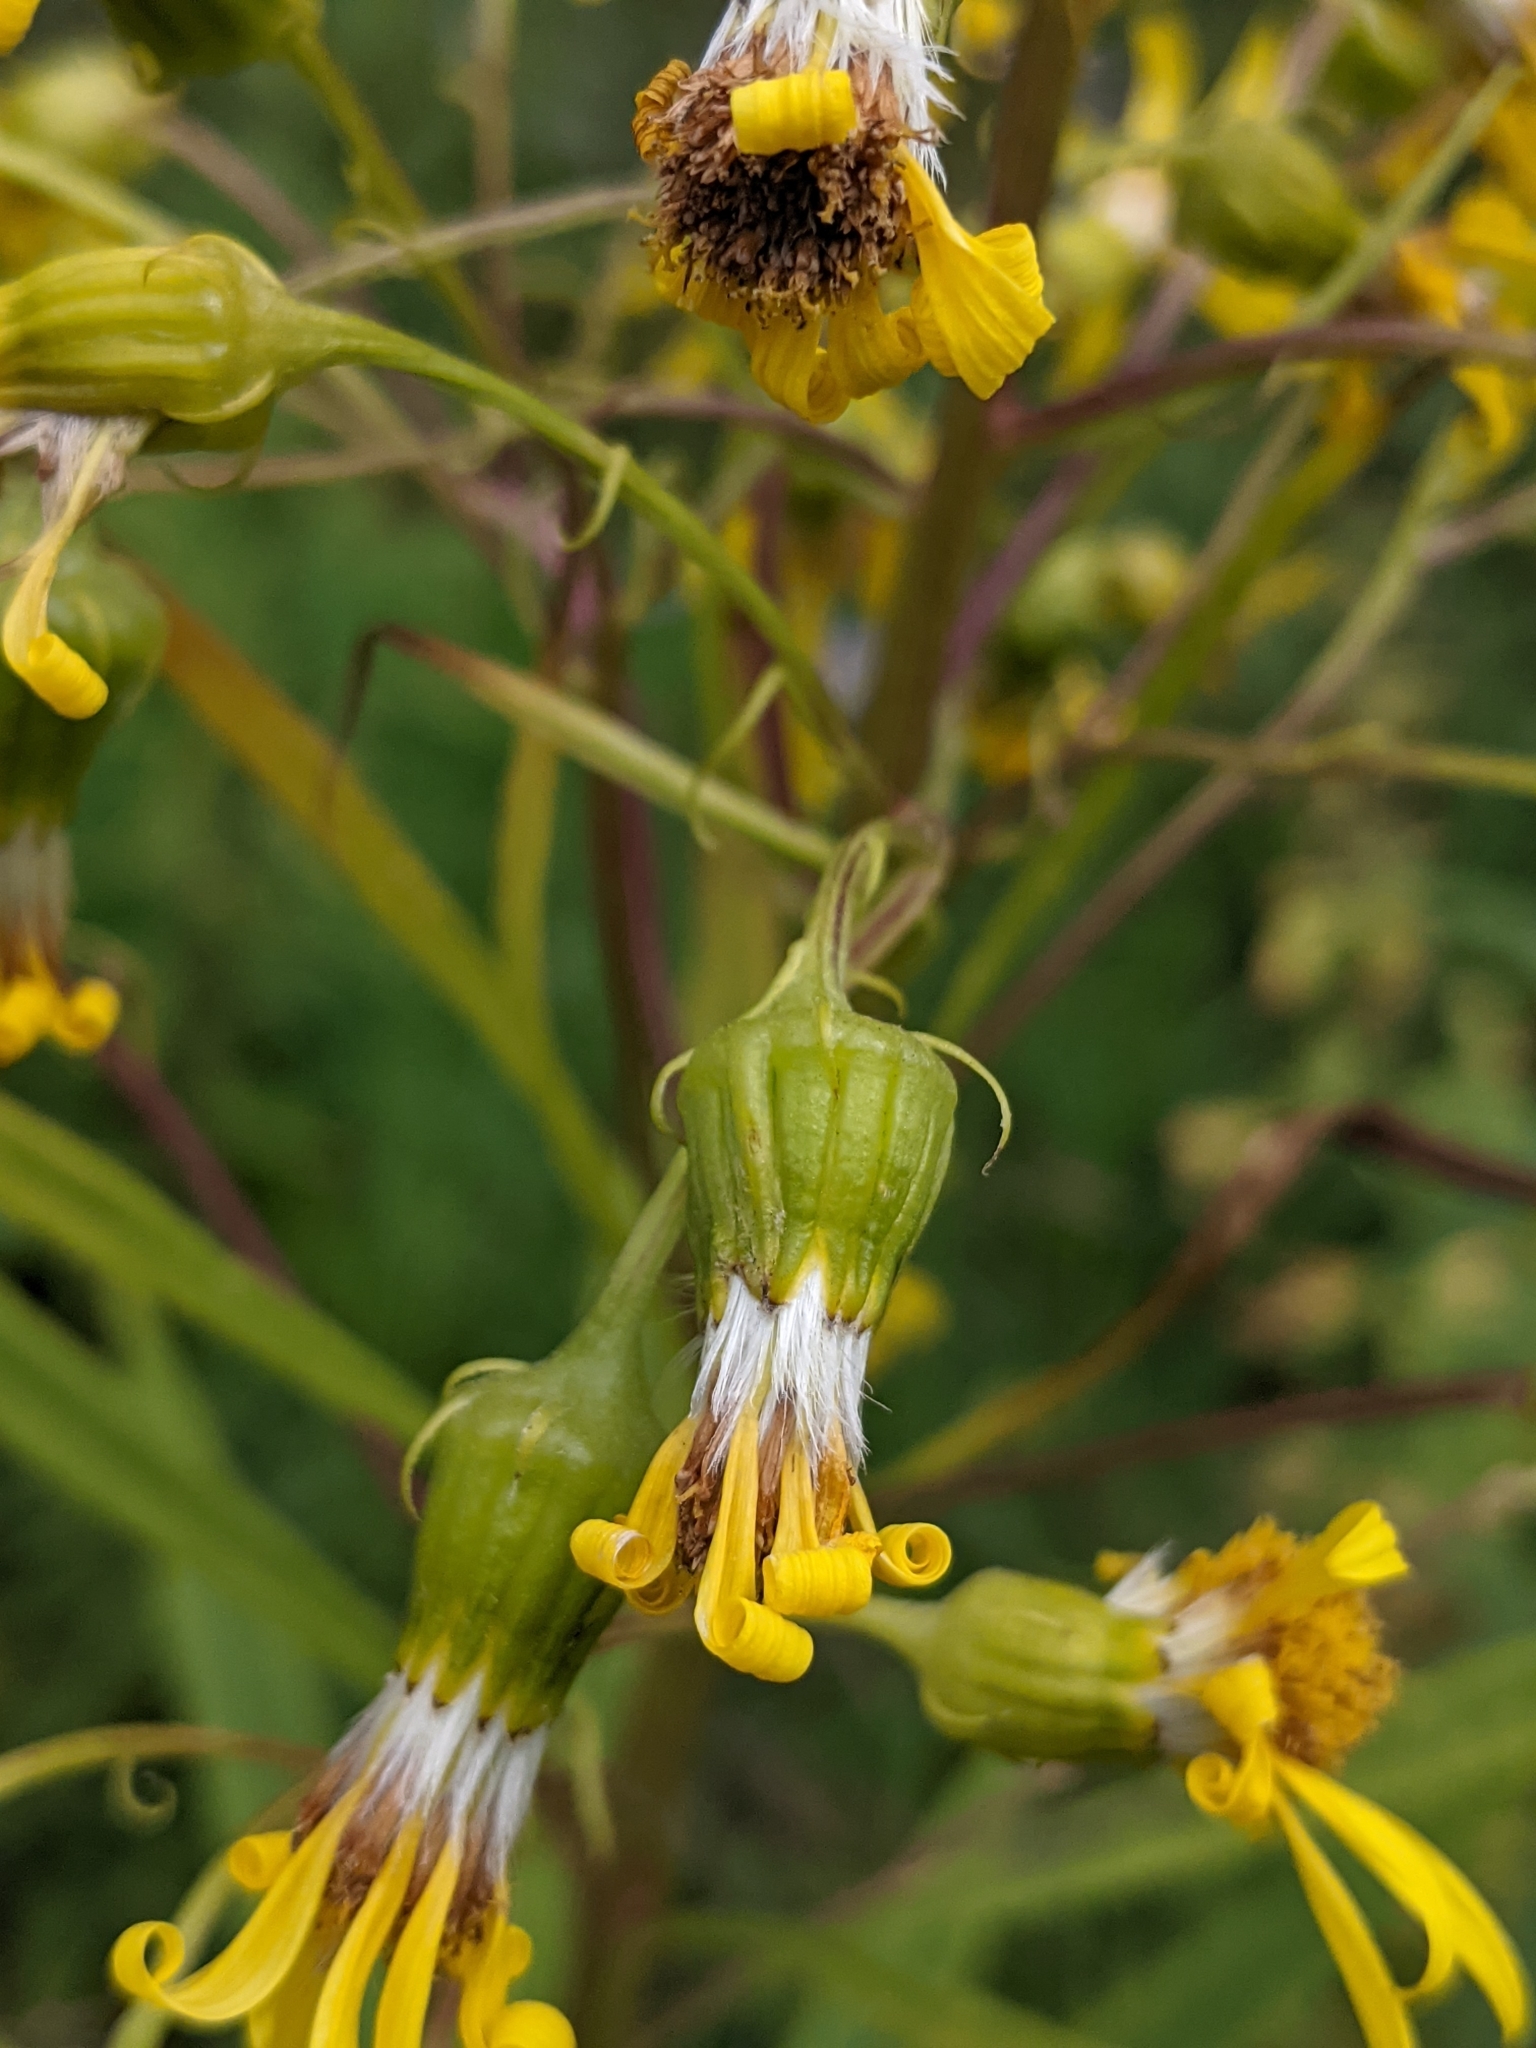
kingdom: Plantae
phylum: Tracheophyta
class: Magnoliopsida
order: Asterales
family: Asteraceae
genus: Senecio
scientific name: Senecio serra
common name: Tall ragwort
